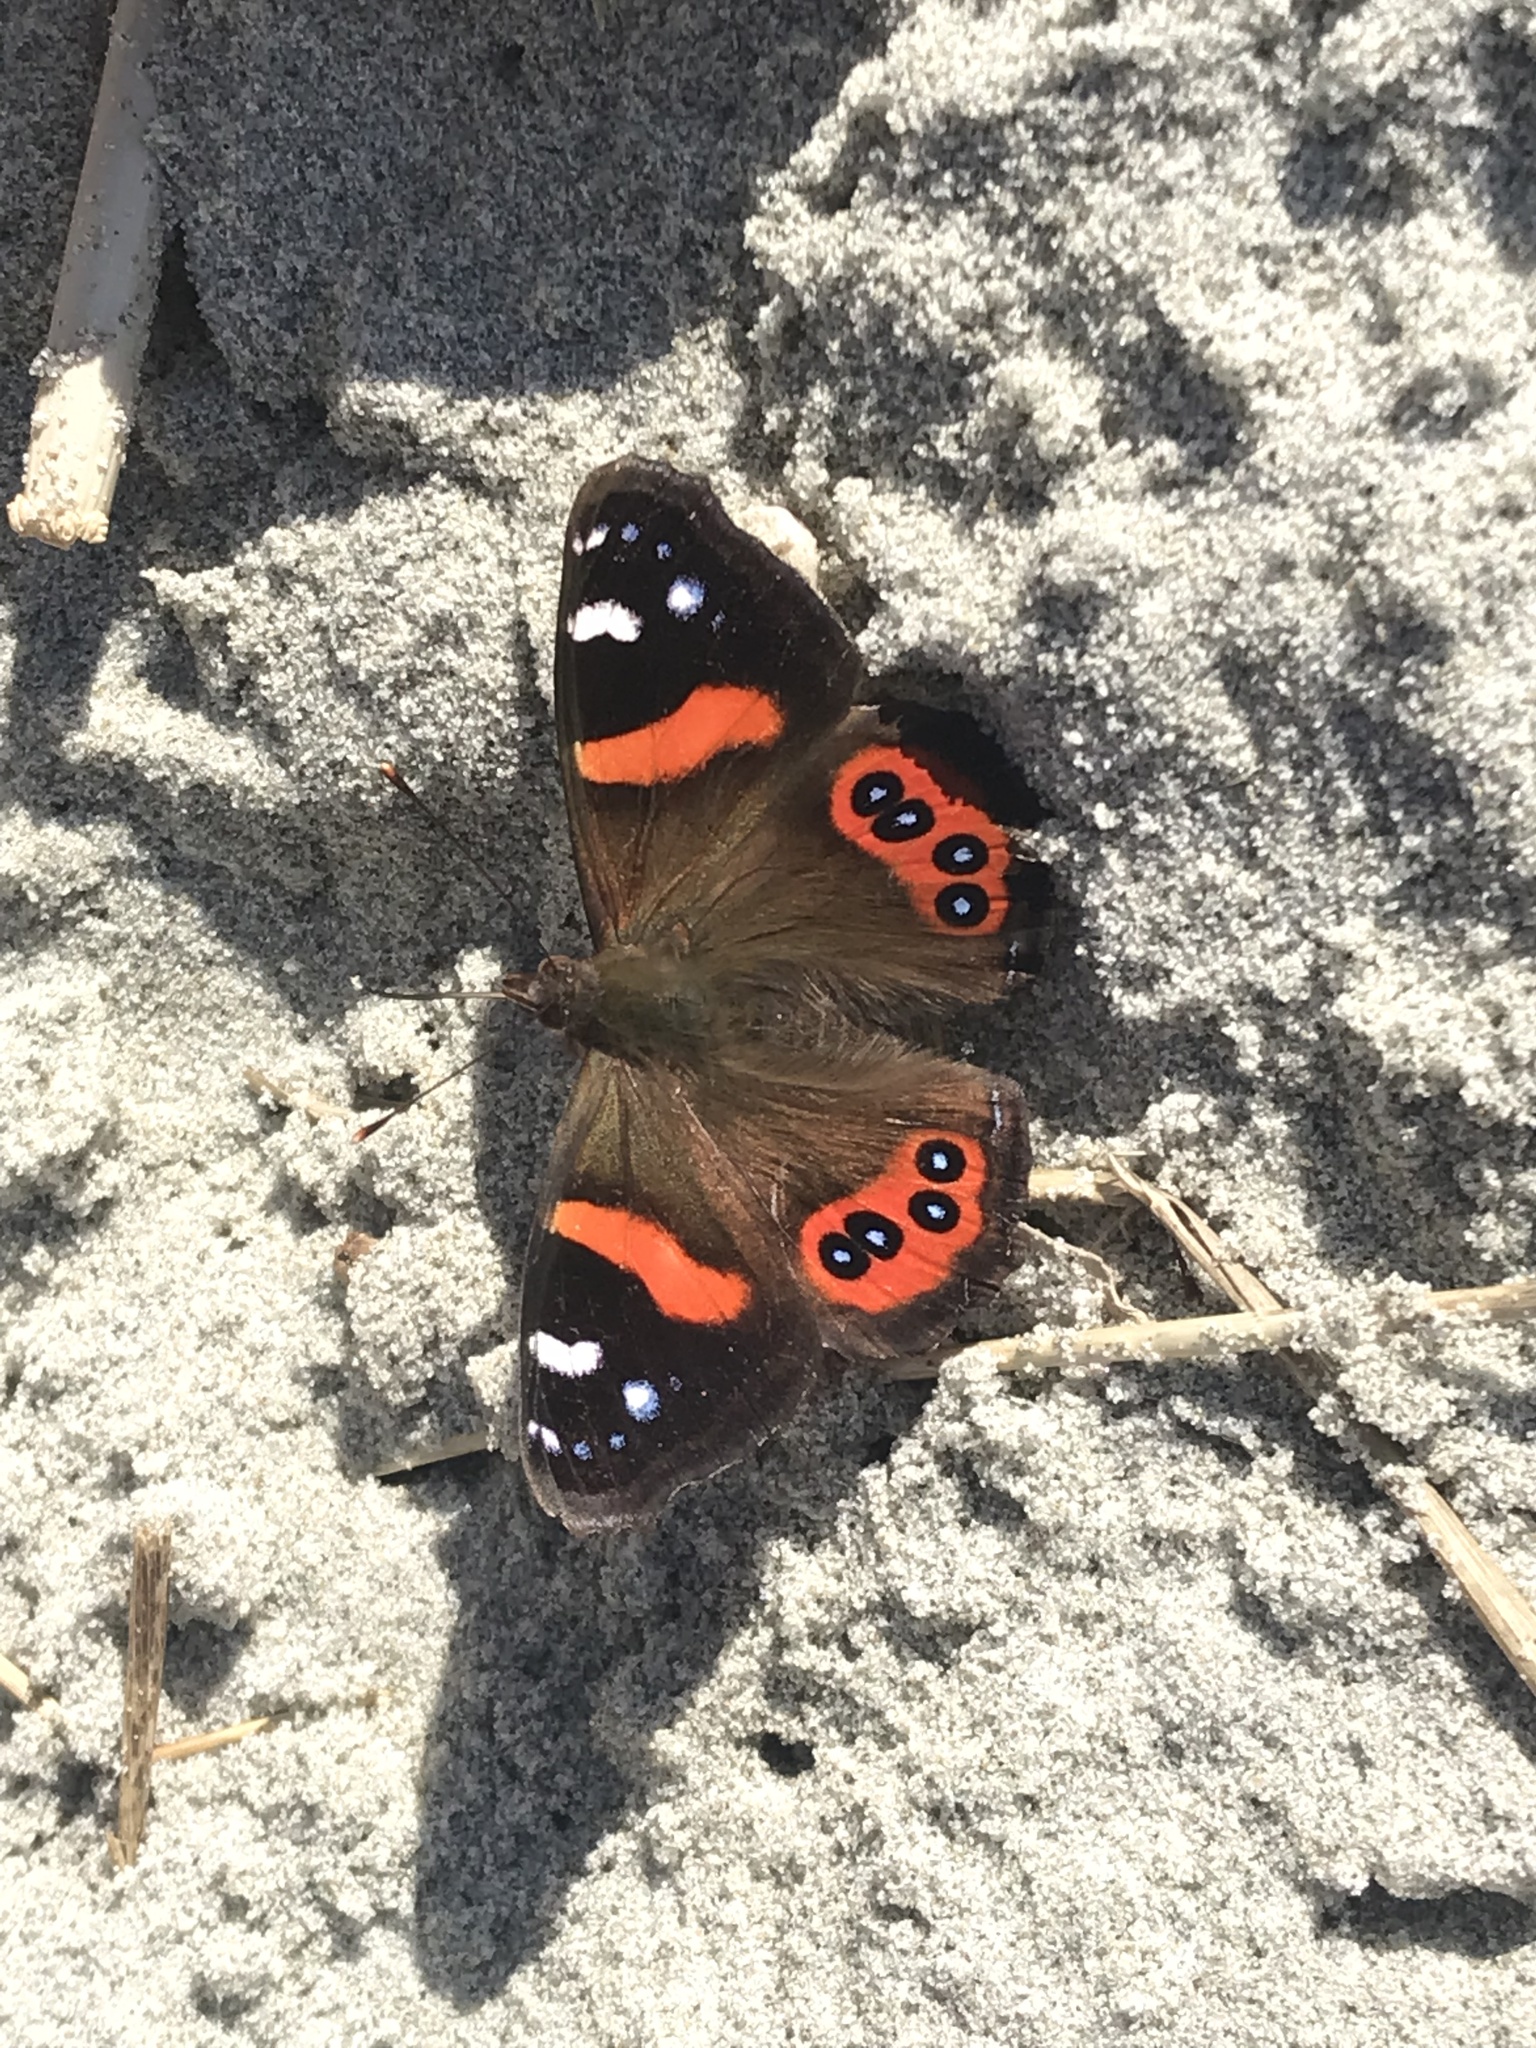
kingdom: Animalia
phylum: Arthropoda
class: Insecta
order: Lepidoptera
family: Nymphalidae
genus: Vanessa
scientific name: Vanessa gonerilla
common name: New zealand red admiral
